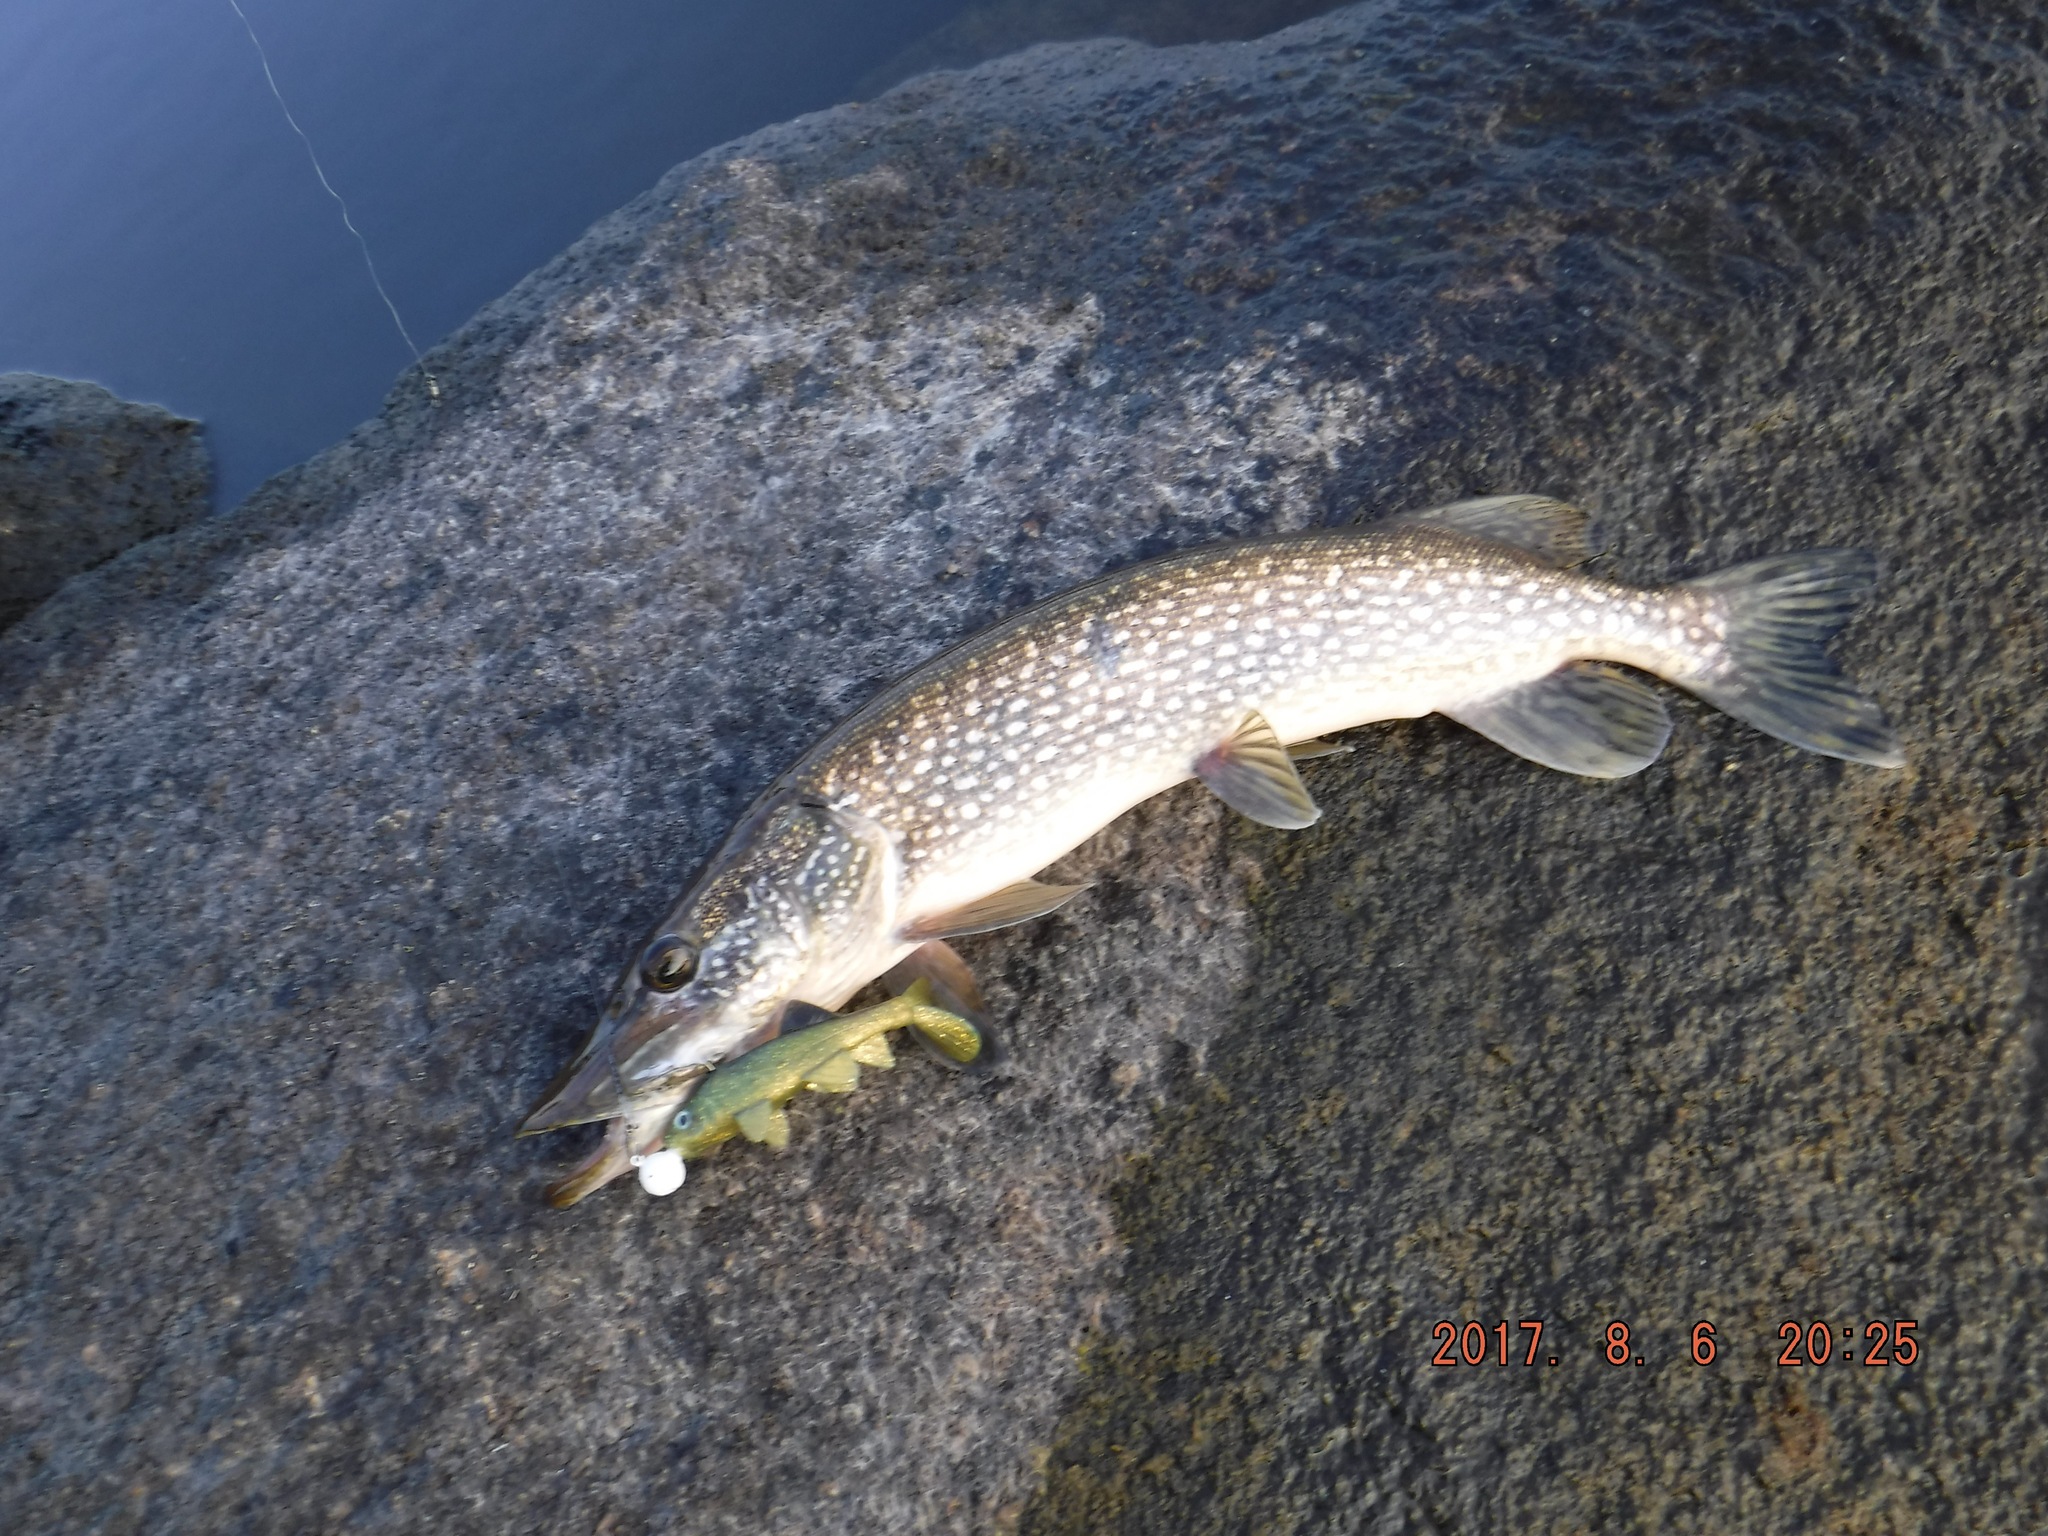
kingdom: Animalia
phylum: Chordata
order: Esociformes
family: Esocidae
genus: Esox
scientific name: Esox lucius
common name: Northern pike
